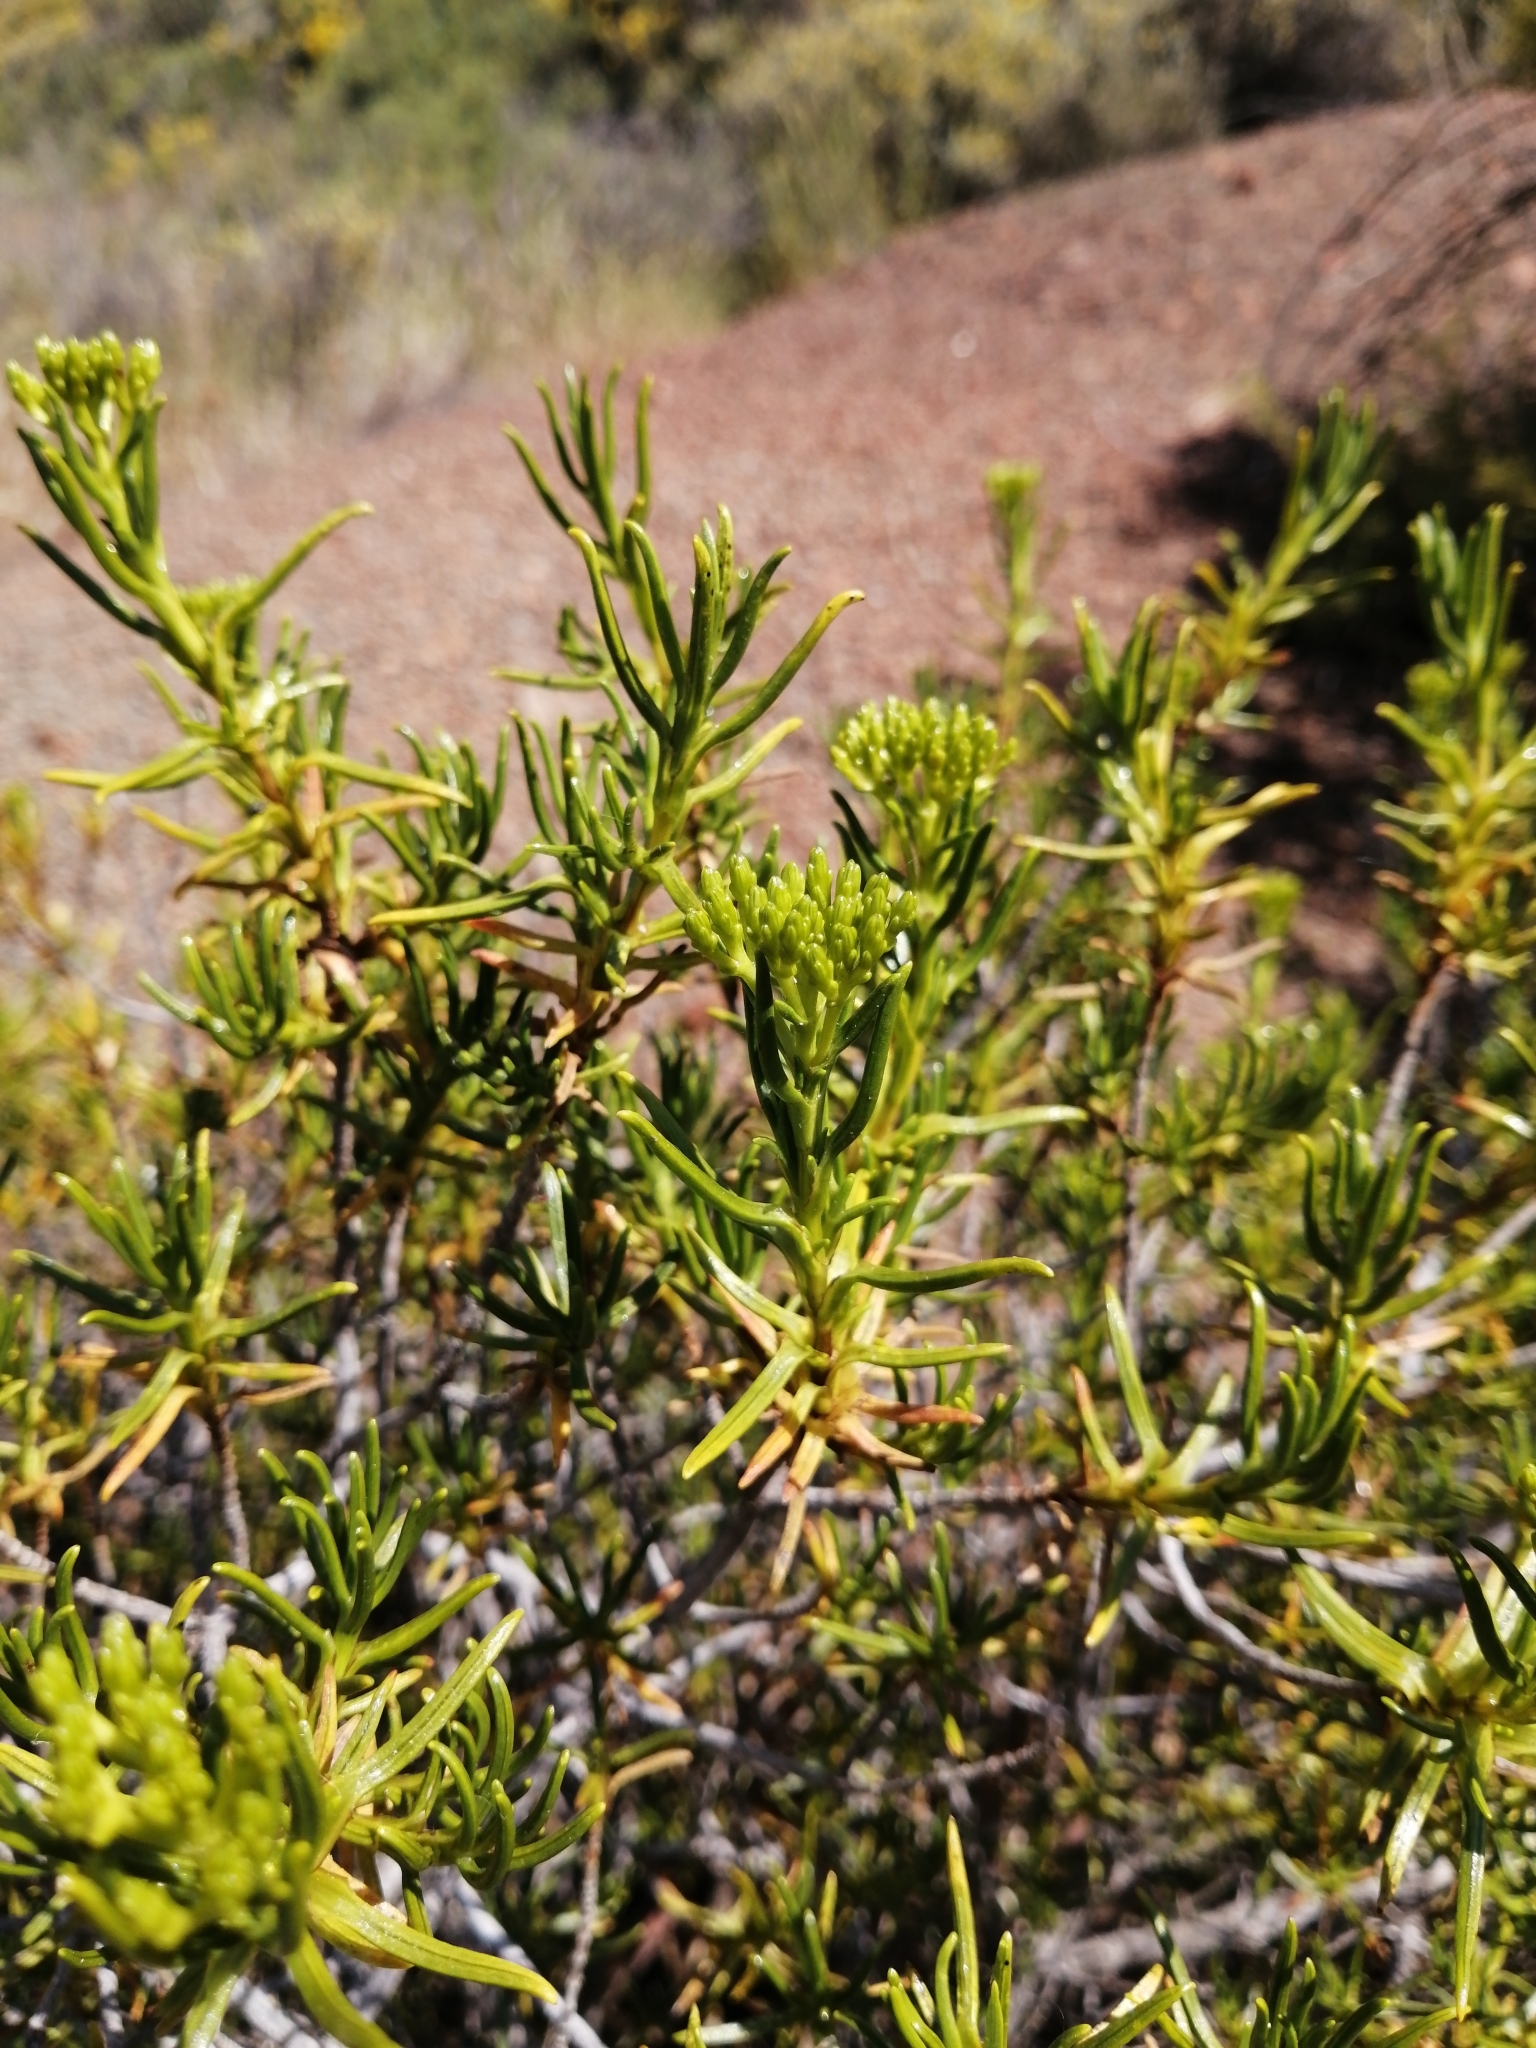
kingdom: Plantae
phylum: Tracheophyta
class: Magnoliopsida
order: Asterales
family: Asteraceae
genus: Pteronia
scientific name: Pteronia paniculata
